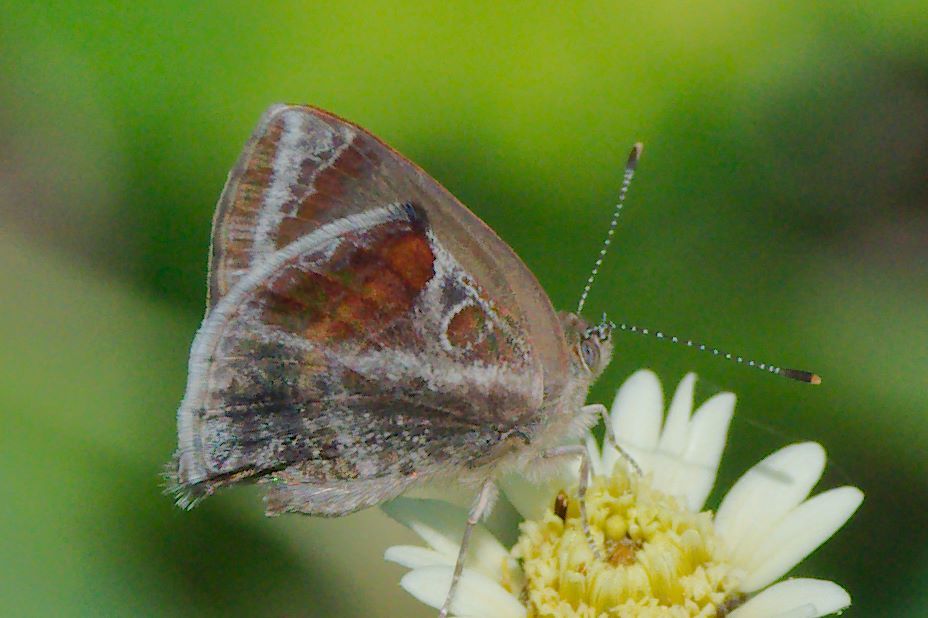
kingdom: Animalia
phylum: Arthropoda
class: Insecta
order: Lepidoptera
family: Lycaenidae
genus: Strymon
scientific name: Strymon bazochii
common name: Lantana scrub-hairstreak
